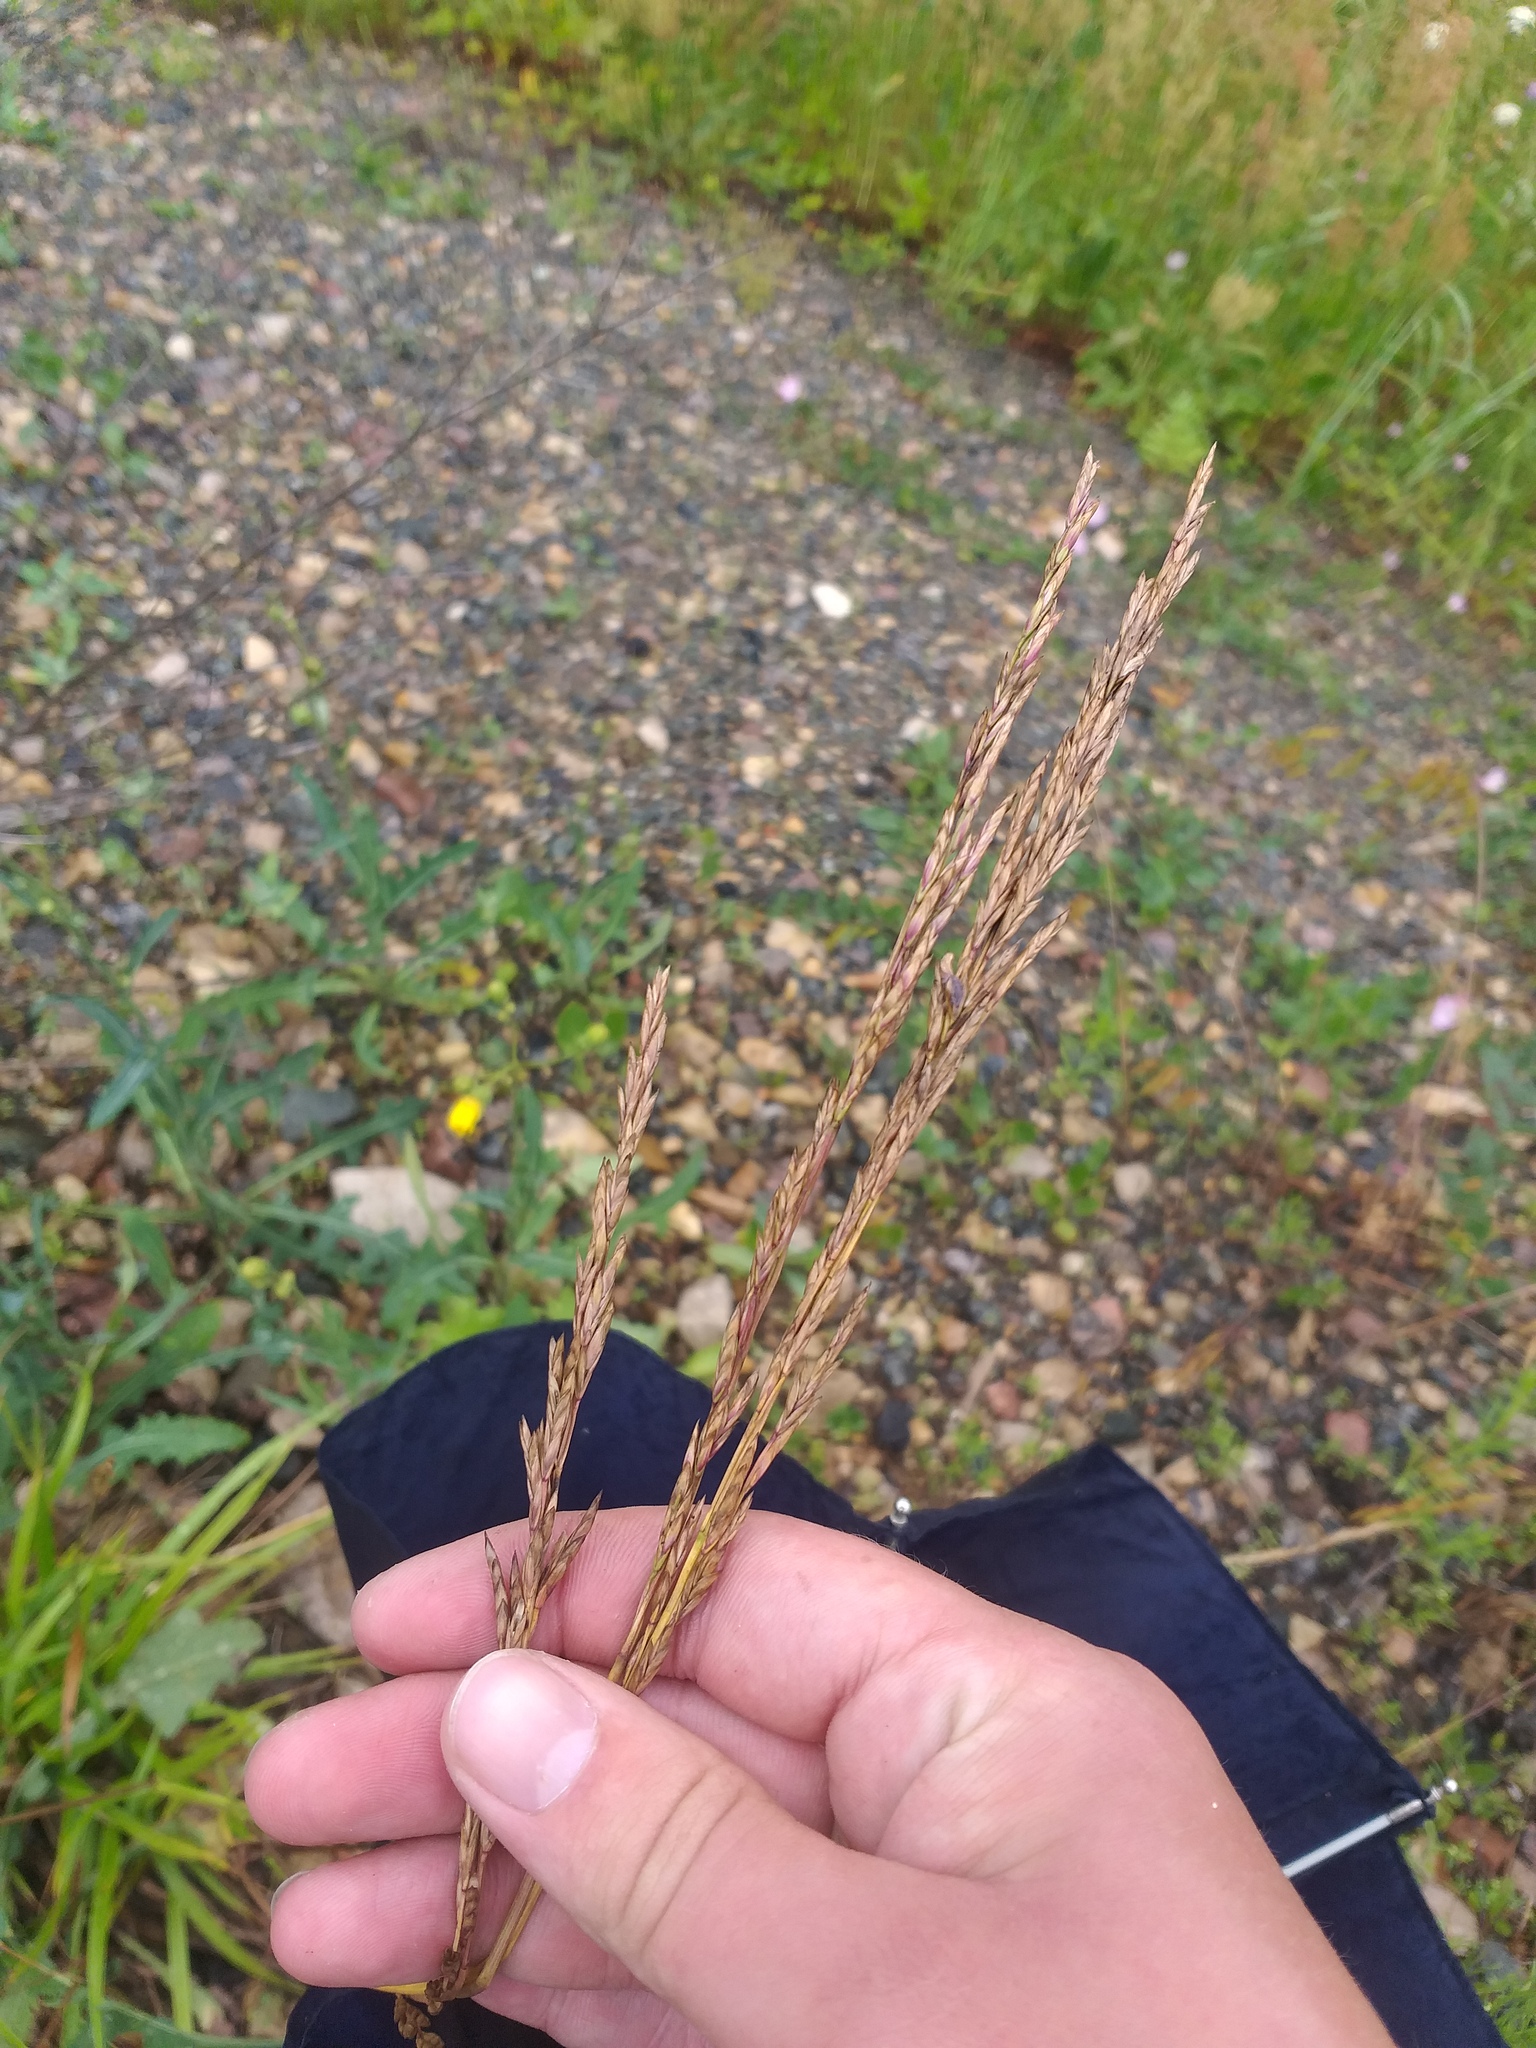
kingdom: Plantae
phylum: Tracheophyta
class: Liliopsida
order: Poales
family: Poaceae
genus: Lolium
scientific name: Lolium pratense
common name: Dover grass
